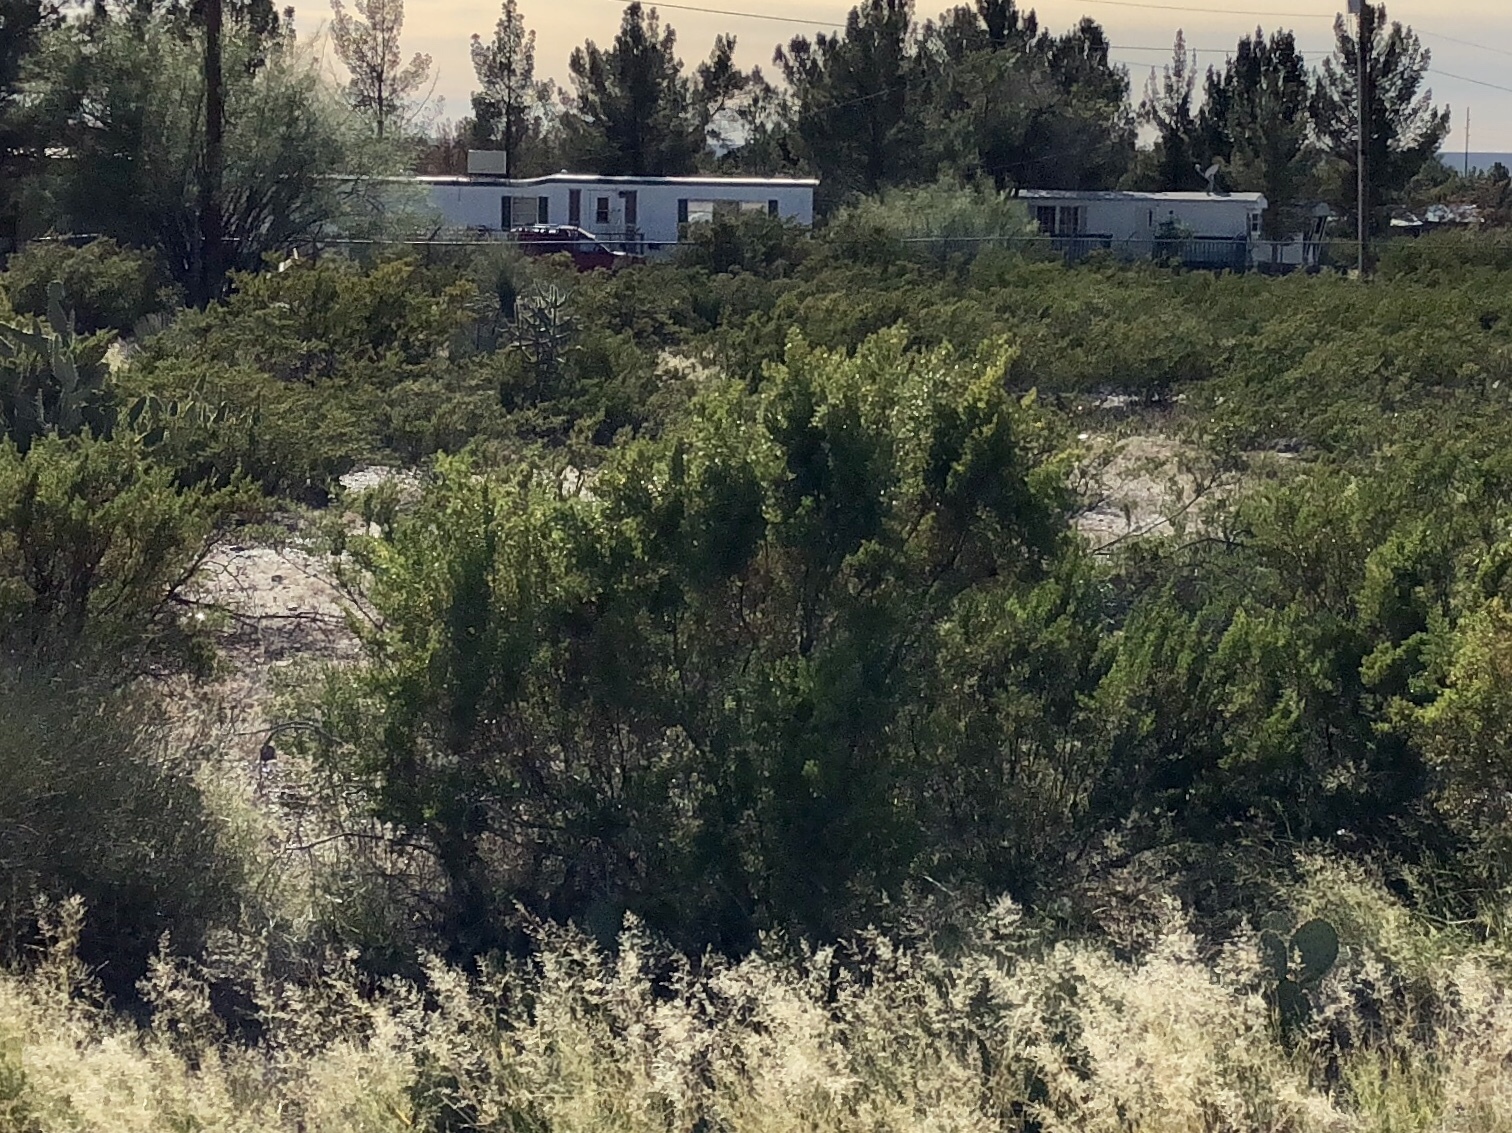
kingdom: Plantae
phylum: Tracheophyta
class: Magnoliopsida
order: Zygophyllales
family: Zygophyllaceae
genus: Larrea
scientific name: Larrea tridentata
